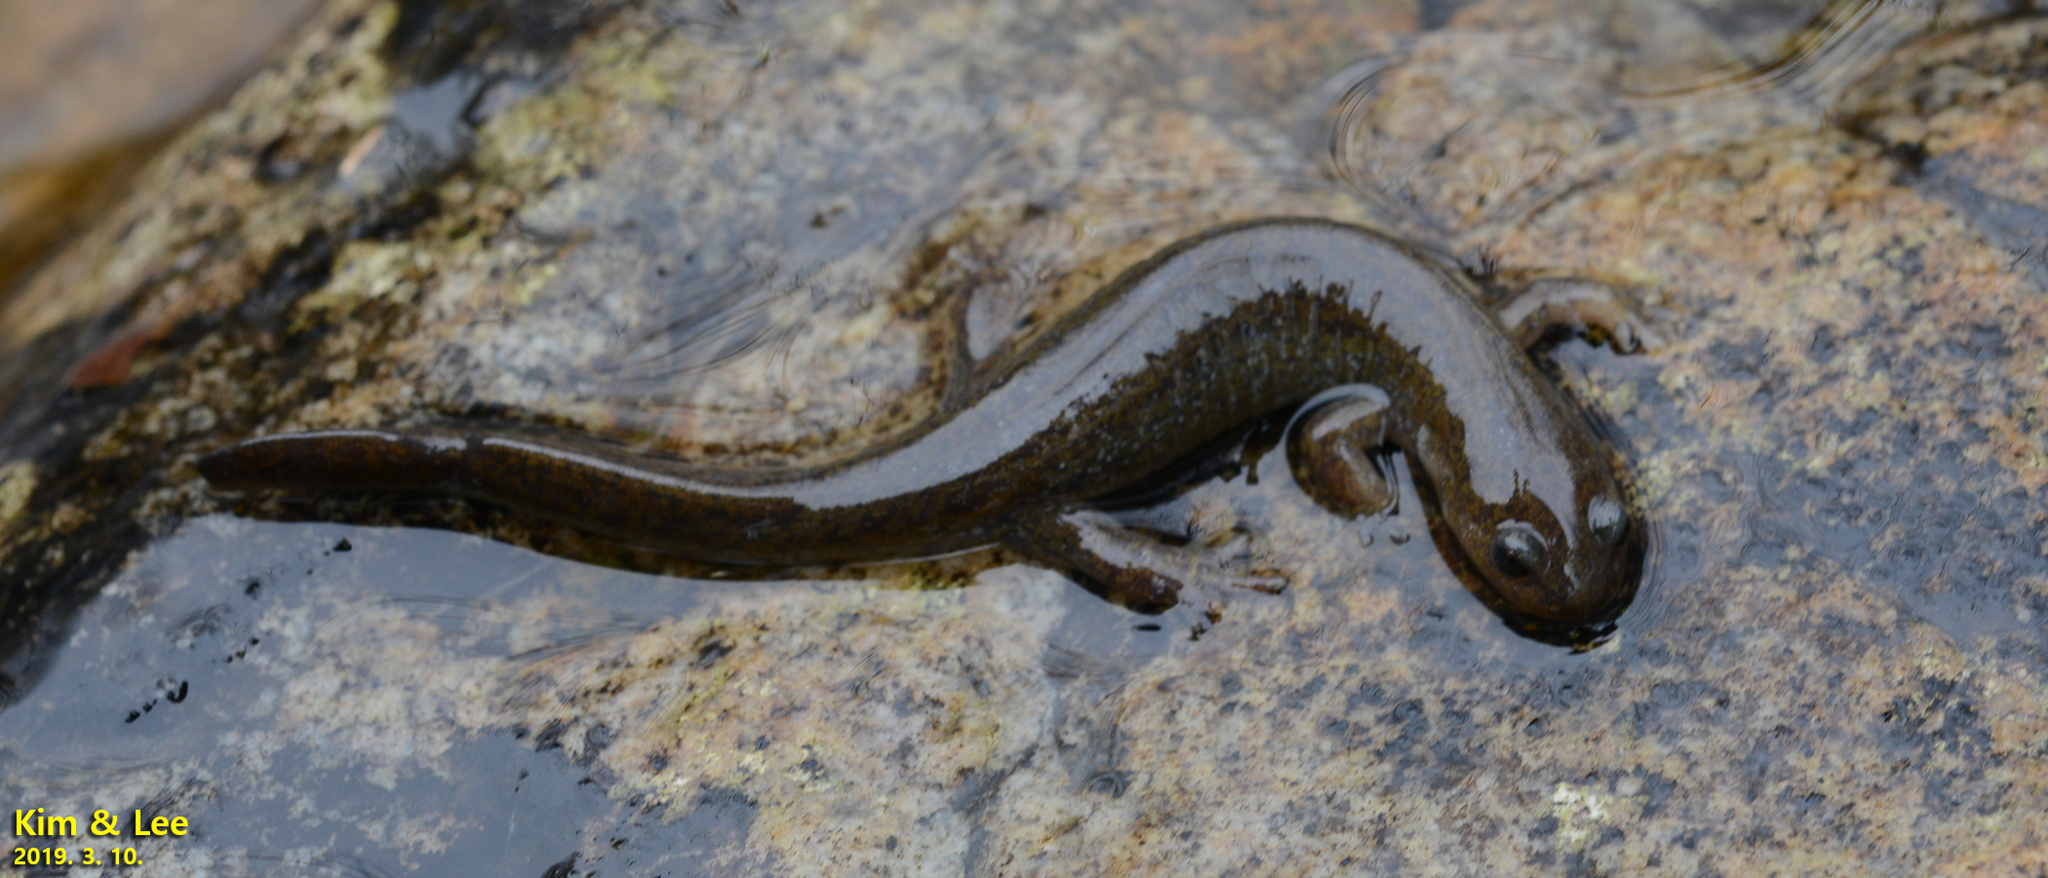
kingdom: Animalia
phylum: Chordata
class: Amphibia
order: Caudata
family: Hynobiidae
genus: Hynobius
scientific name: Hynobius unisacculus
